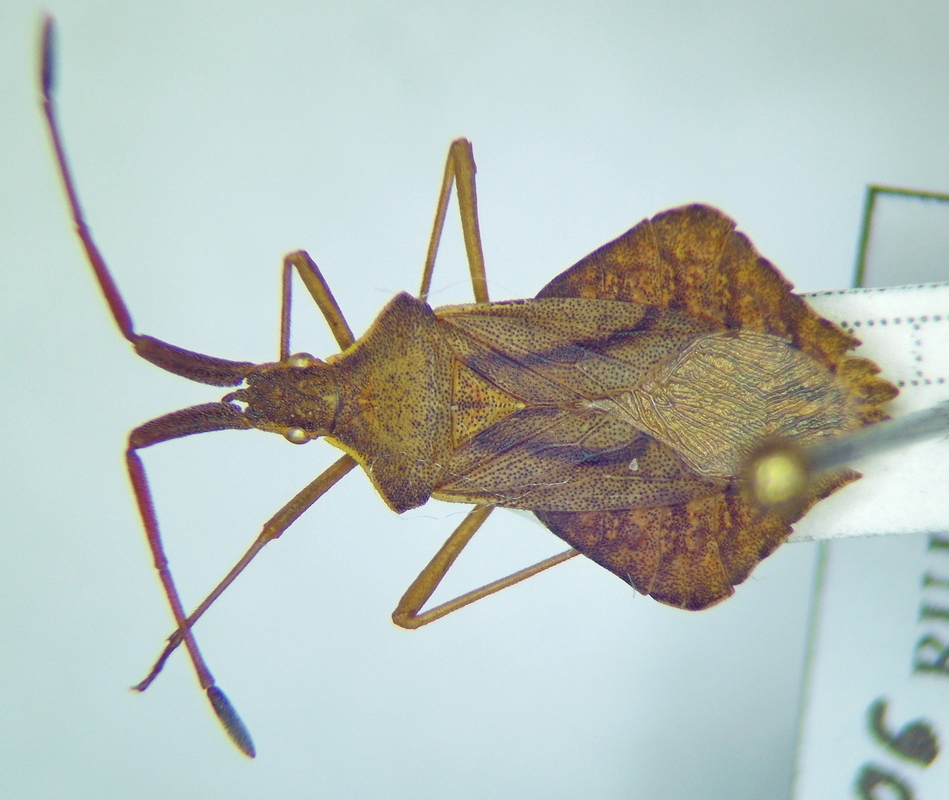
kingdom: Animalia
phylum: Arthropoda
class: Insecta
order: Hemiptera
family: Coreidae
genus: Syromastus
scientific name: Syromastus rhombeus
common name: Rhombic leatherbug
